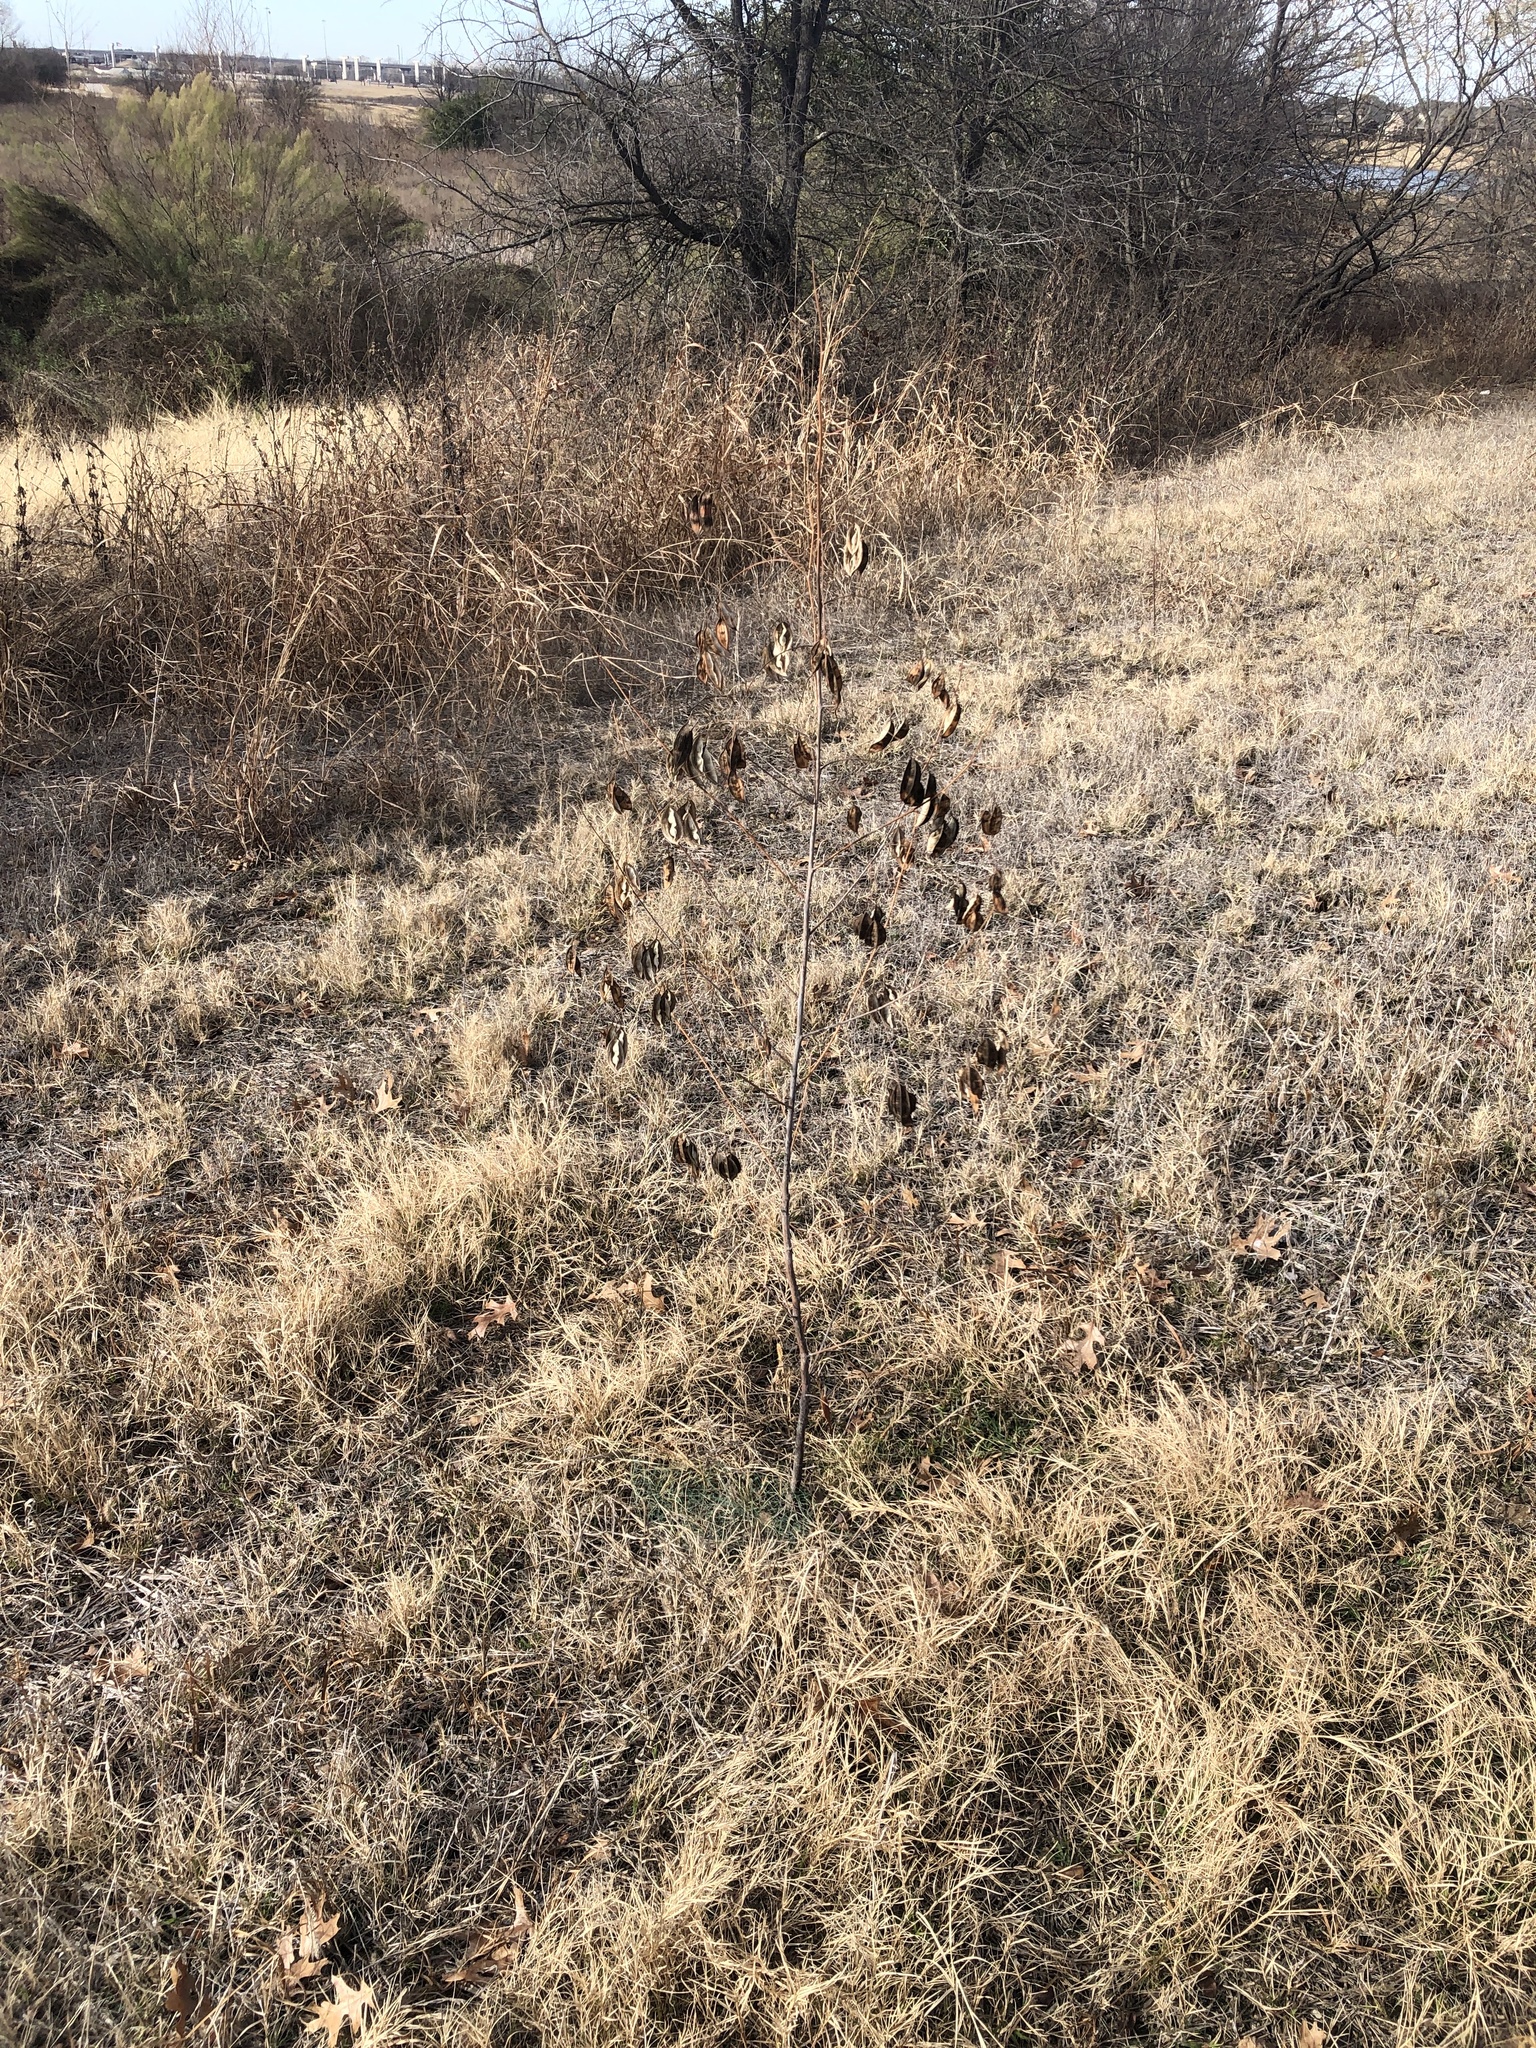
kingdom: Plantae
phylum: Tracheophyta
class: Magnoliopsida
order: Fabales
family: Fabaceae
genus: Sesbania
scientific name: Sesbania vesicaria
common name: Bagpod
